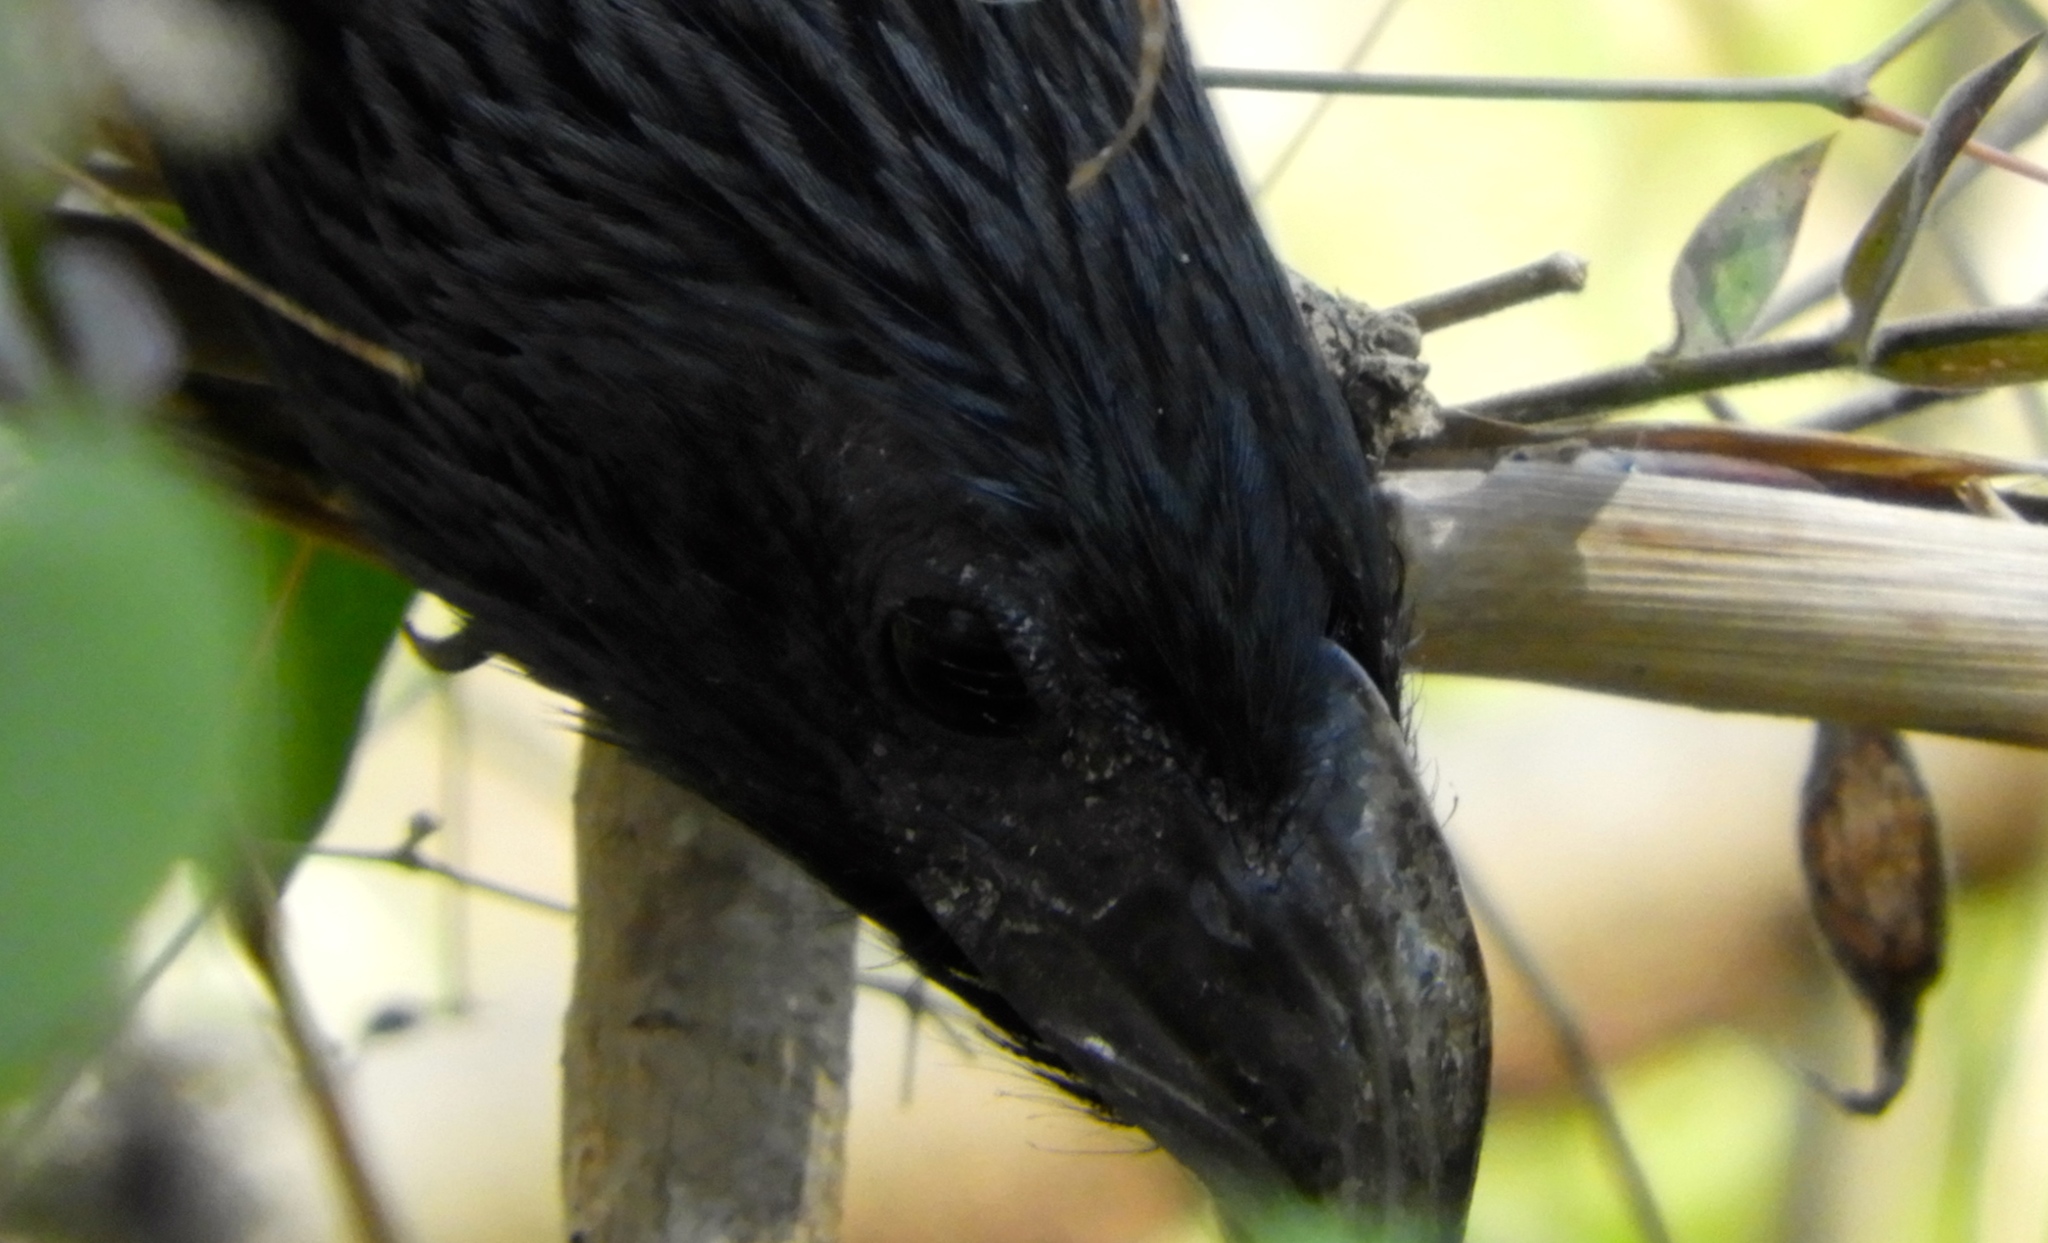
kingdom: Animalia
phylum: Chordata
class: Aves
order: Cuculiformes
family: Cuculidae
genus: Crotophaga
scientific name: Crotophaga sulcirostris
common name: Groove-billed ani
